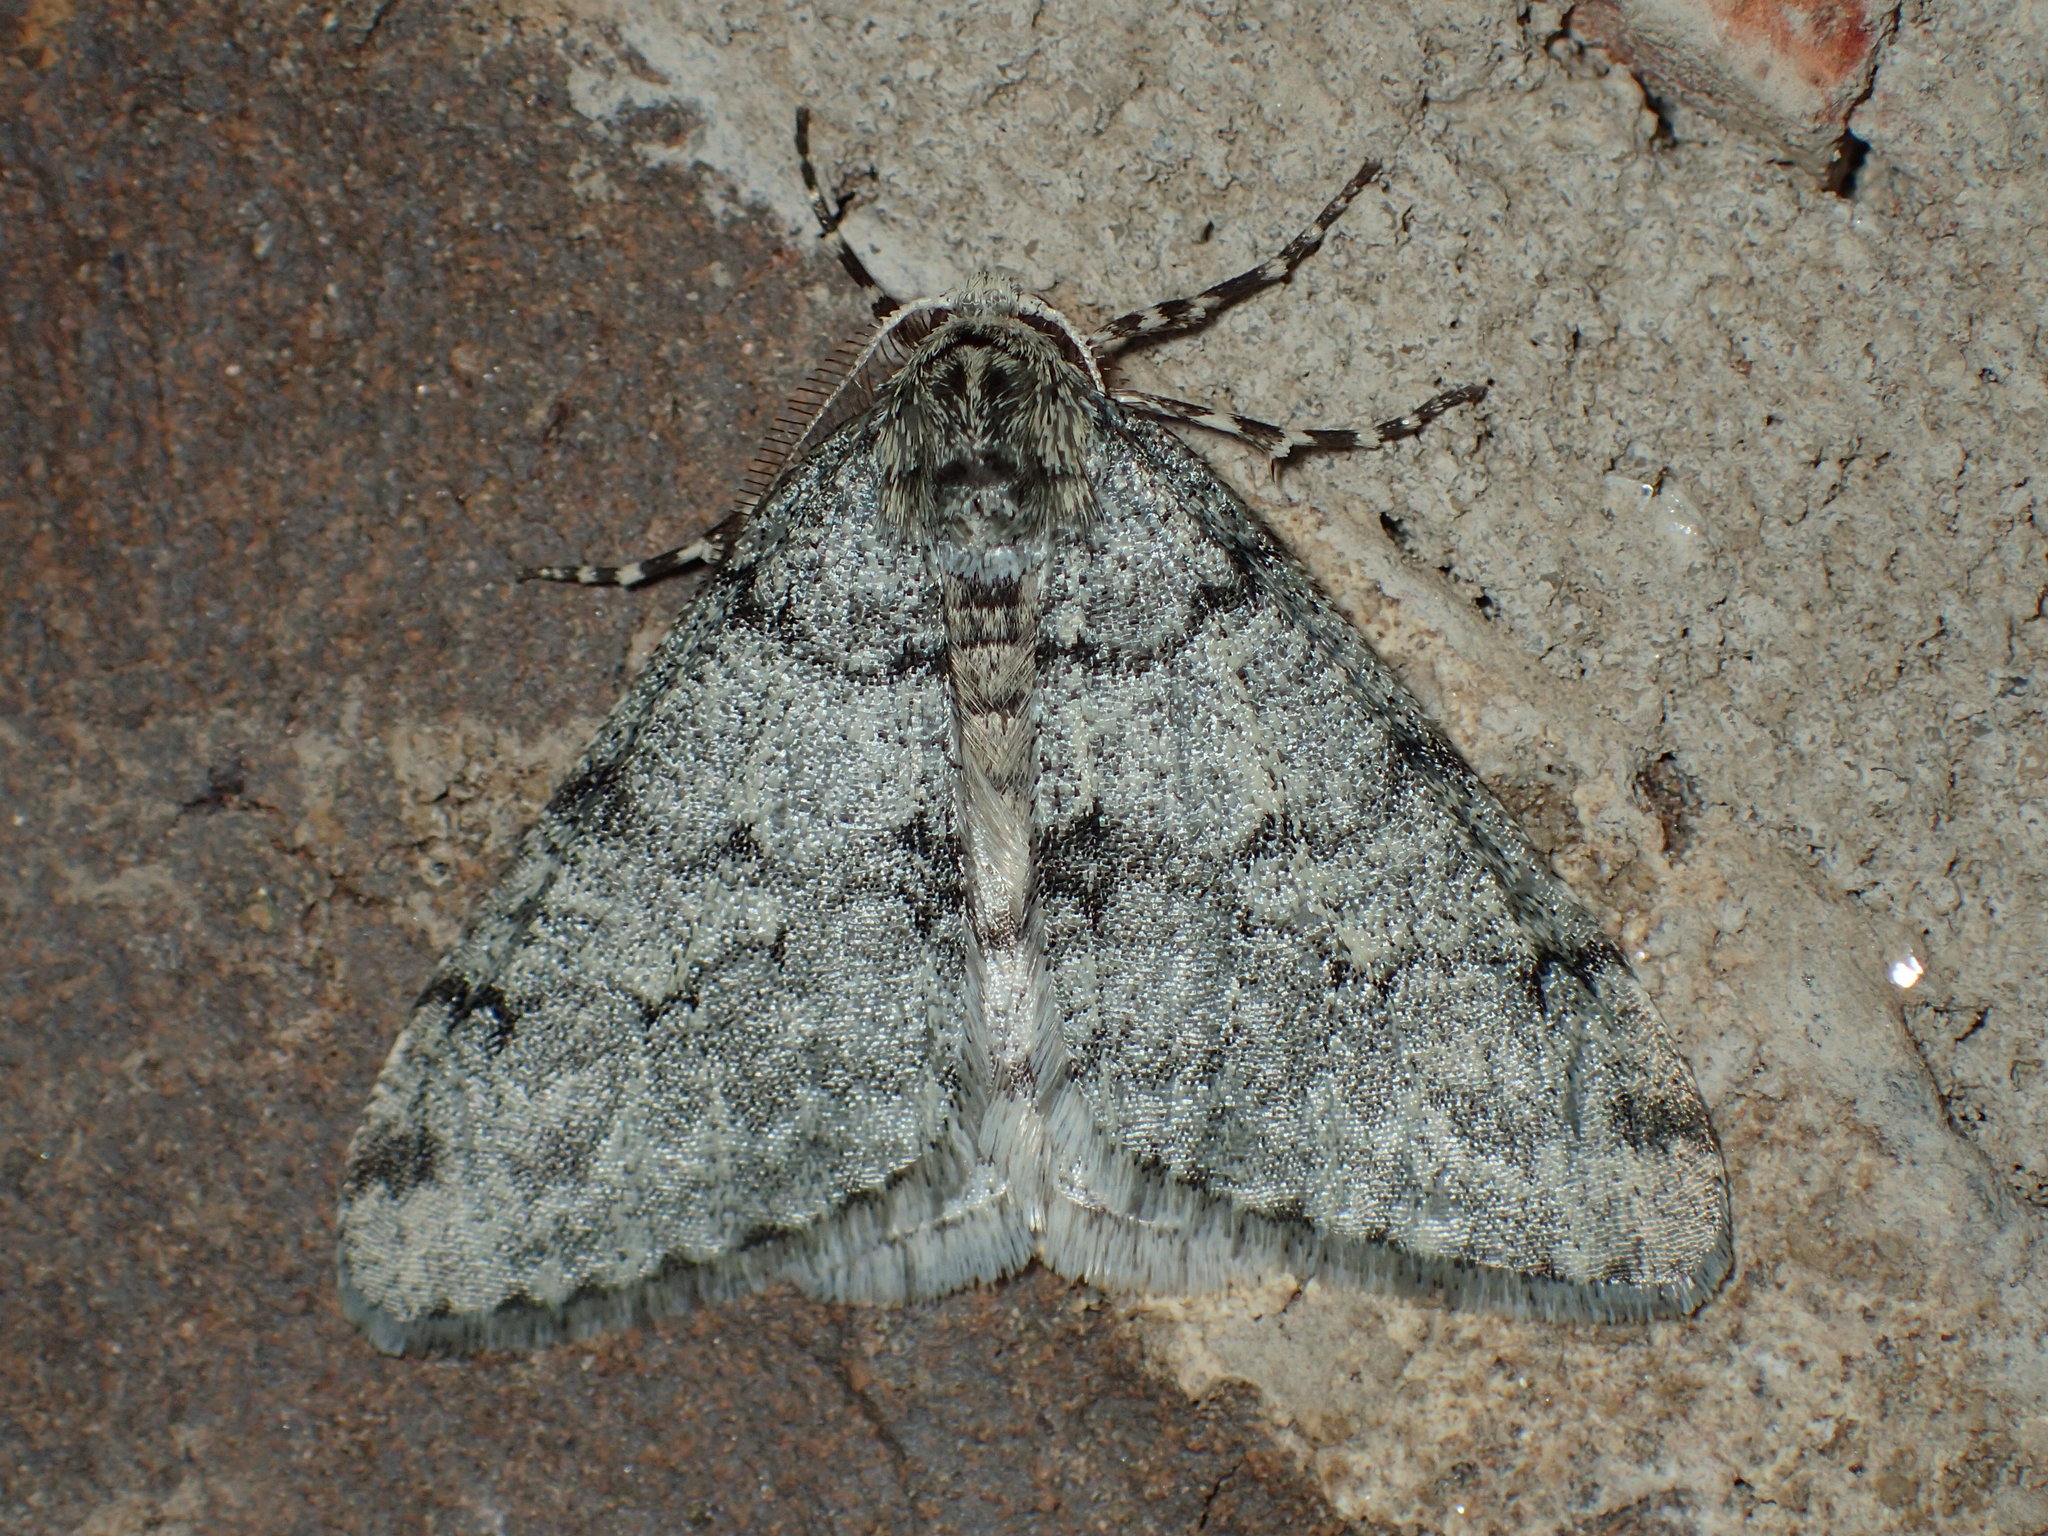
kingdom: Animalia
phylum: Arthropoda
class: Insecta
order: Lepidoptera
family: Geometridae
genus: Phigalia
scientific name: Phigalia strigataria
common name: Small phigalia
